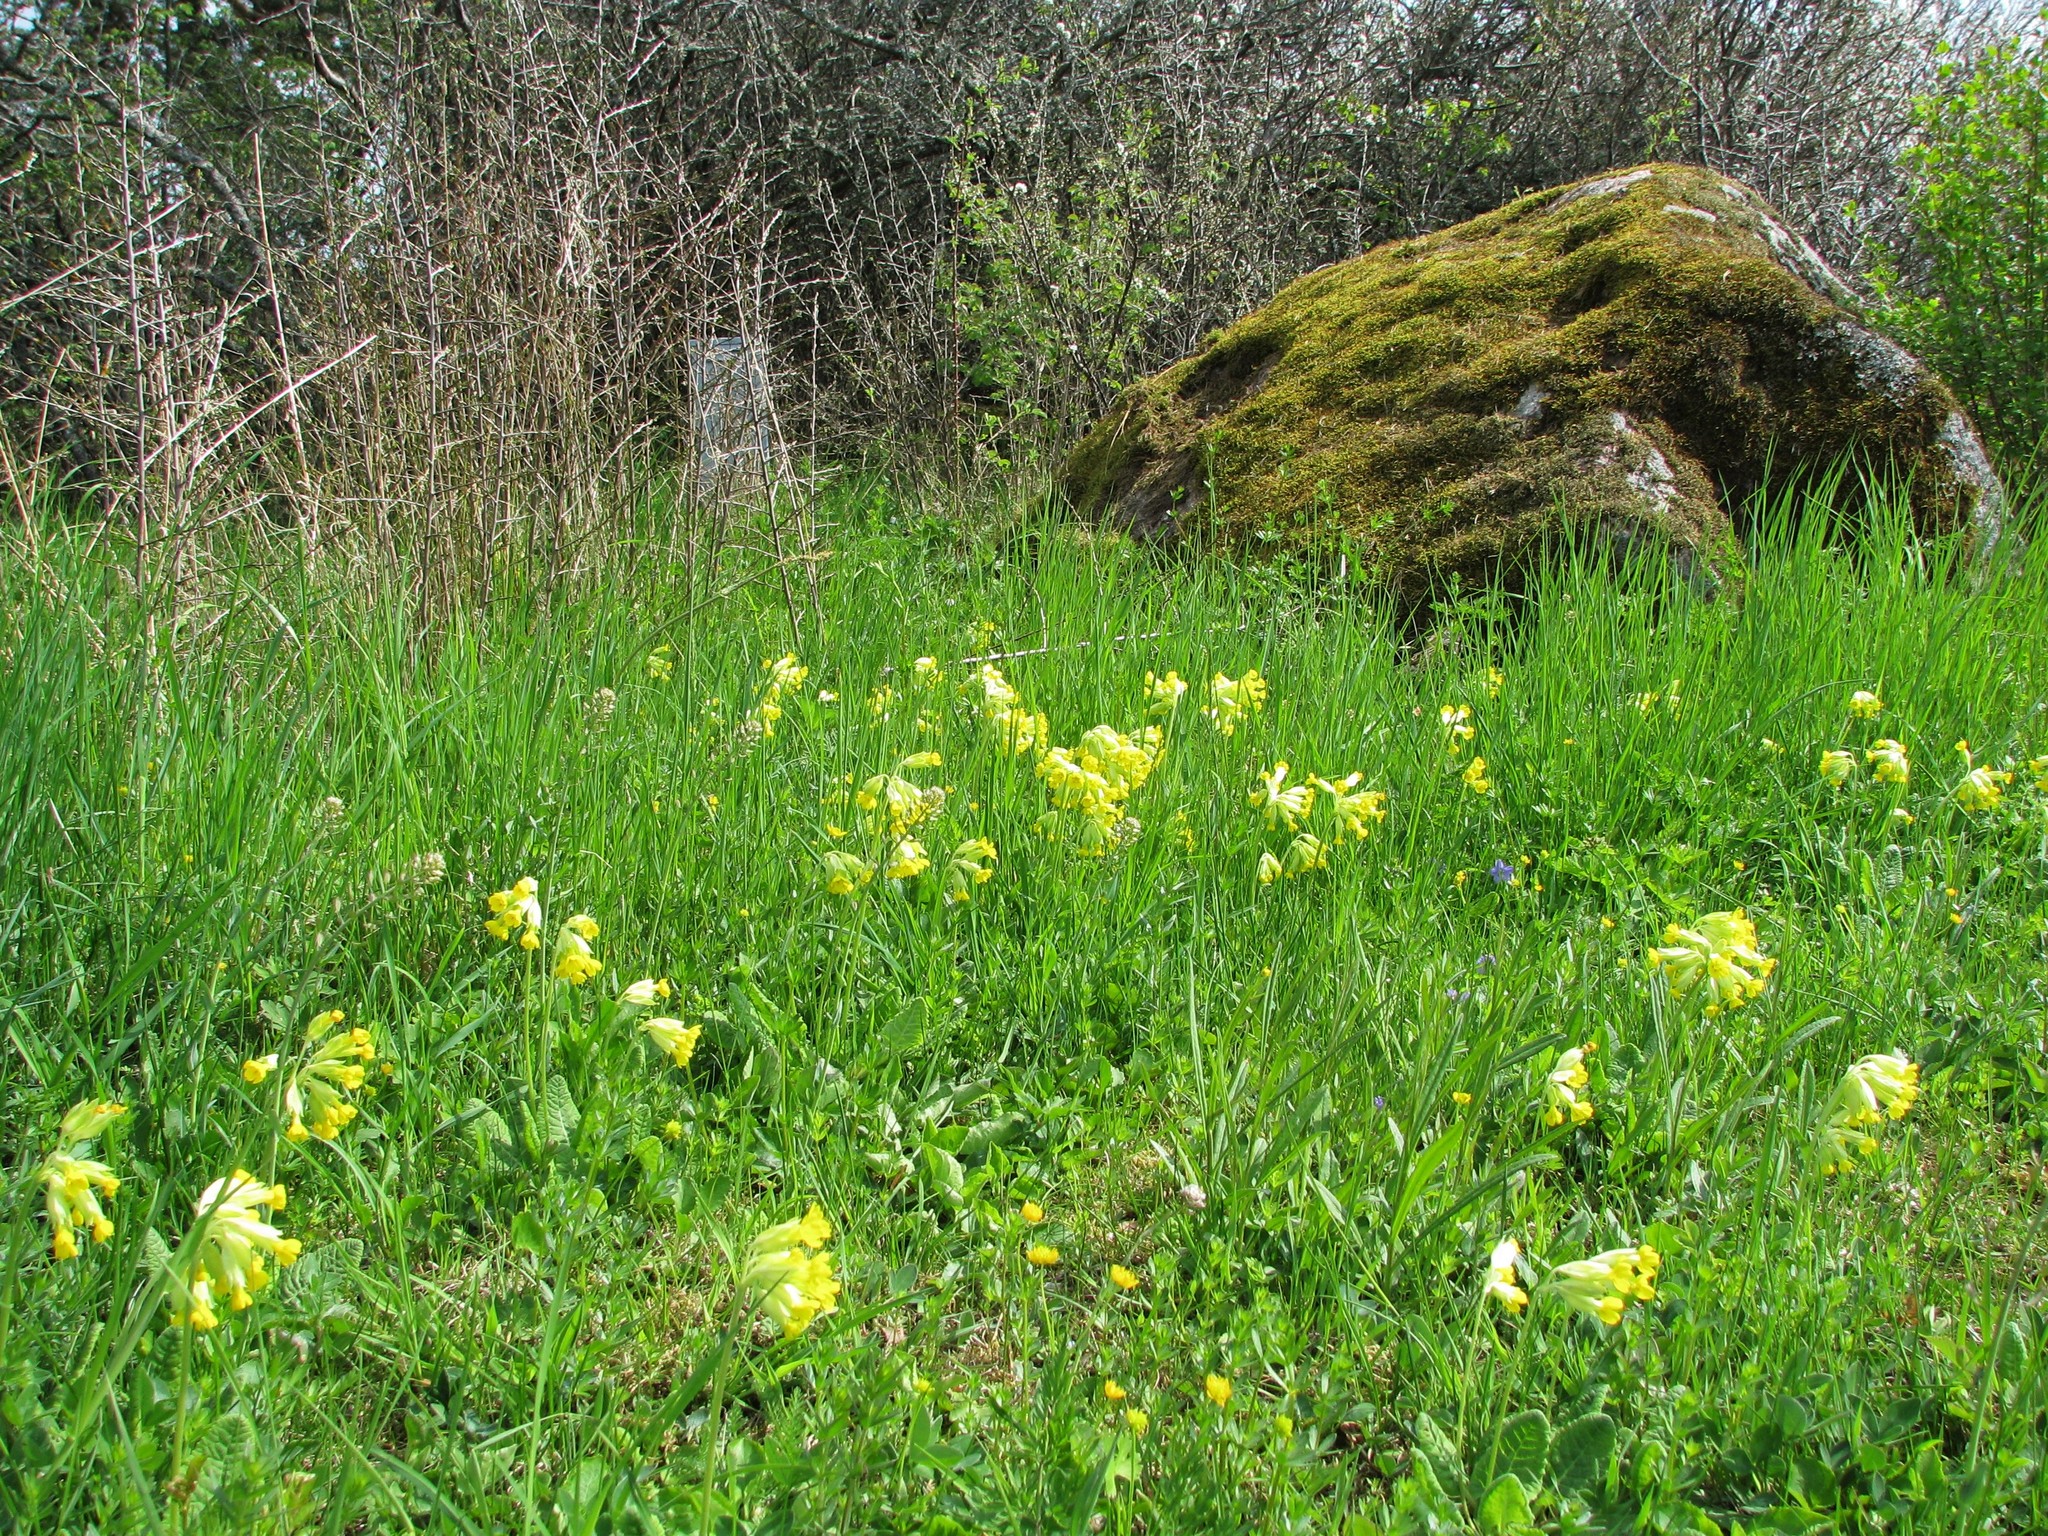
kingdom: Plantae
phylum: Tracheophyta
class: Magnoliopsida
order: Ericales
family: Primulaceae
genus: Primula
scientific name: Primula veris
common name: Cowslip
